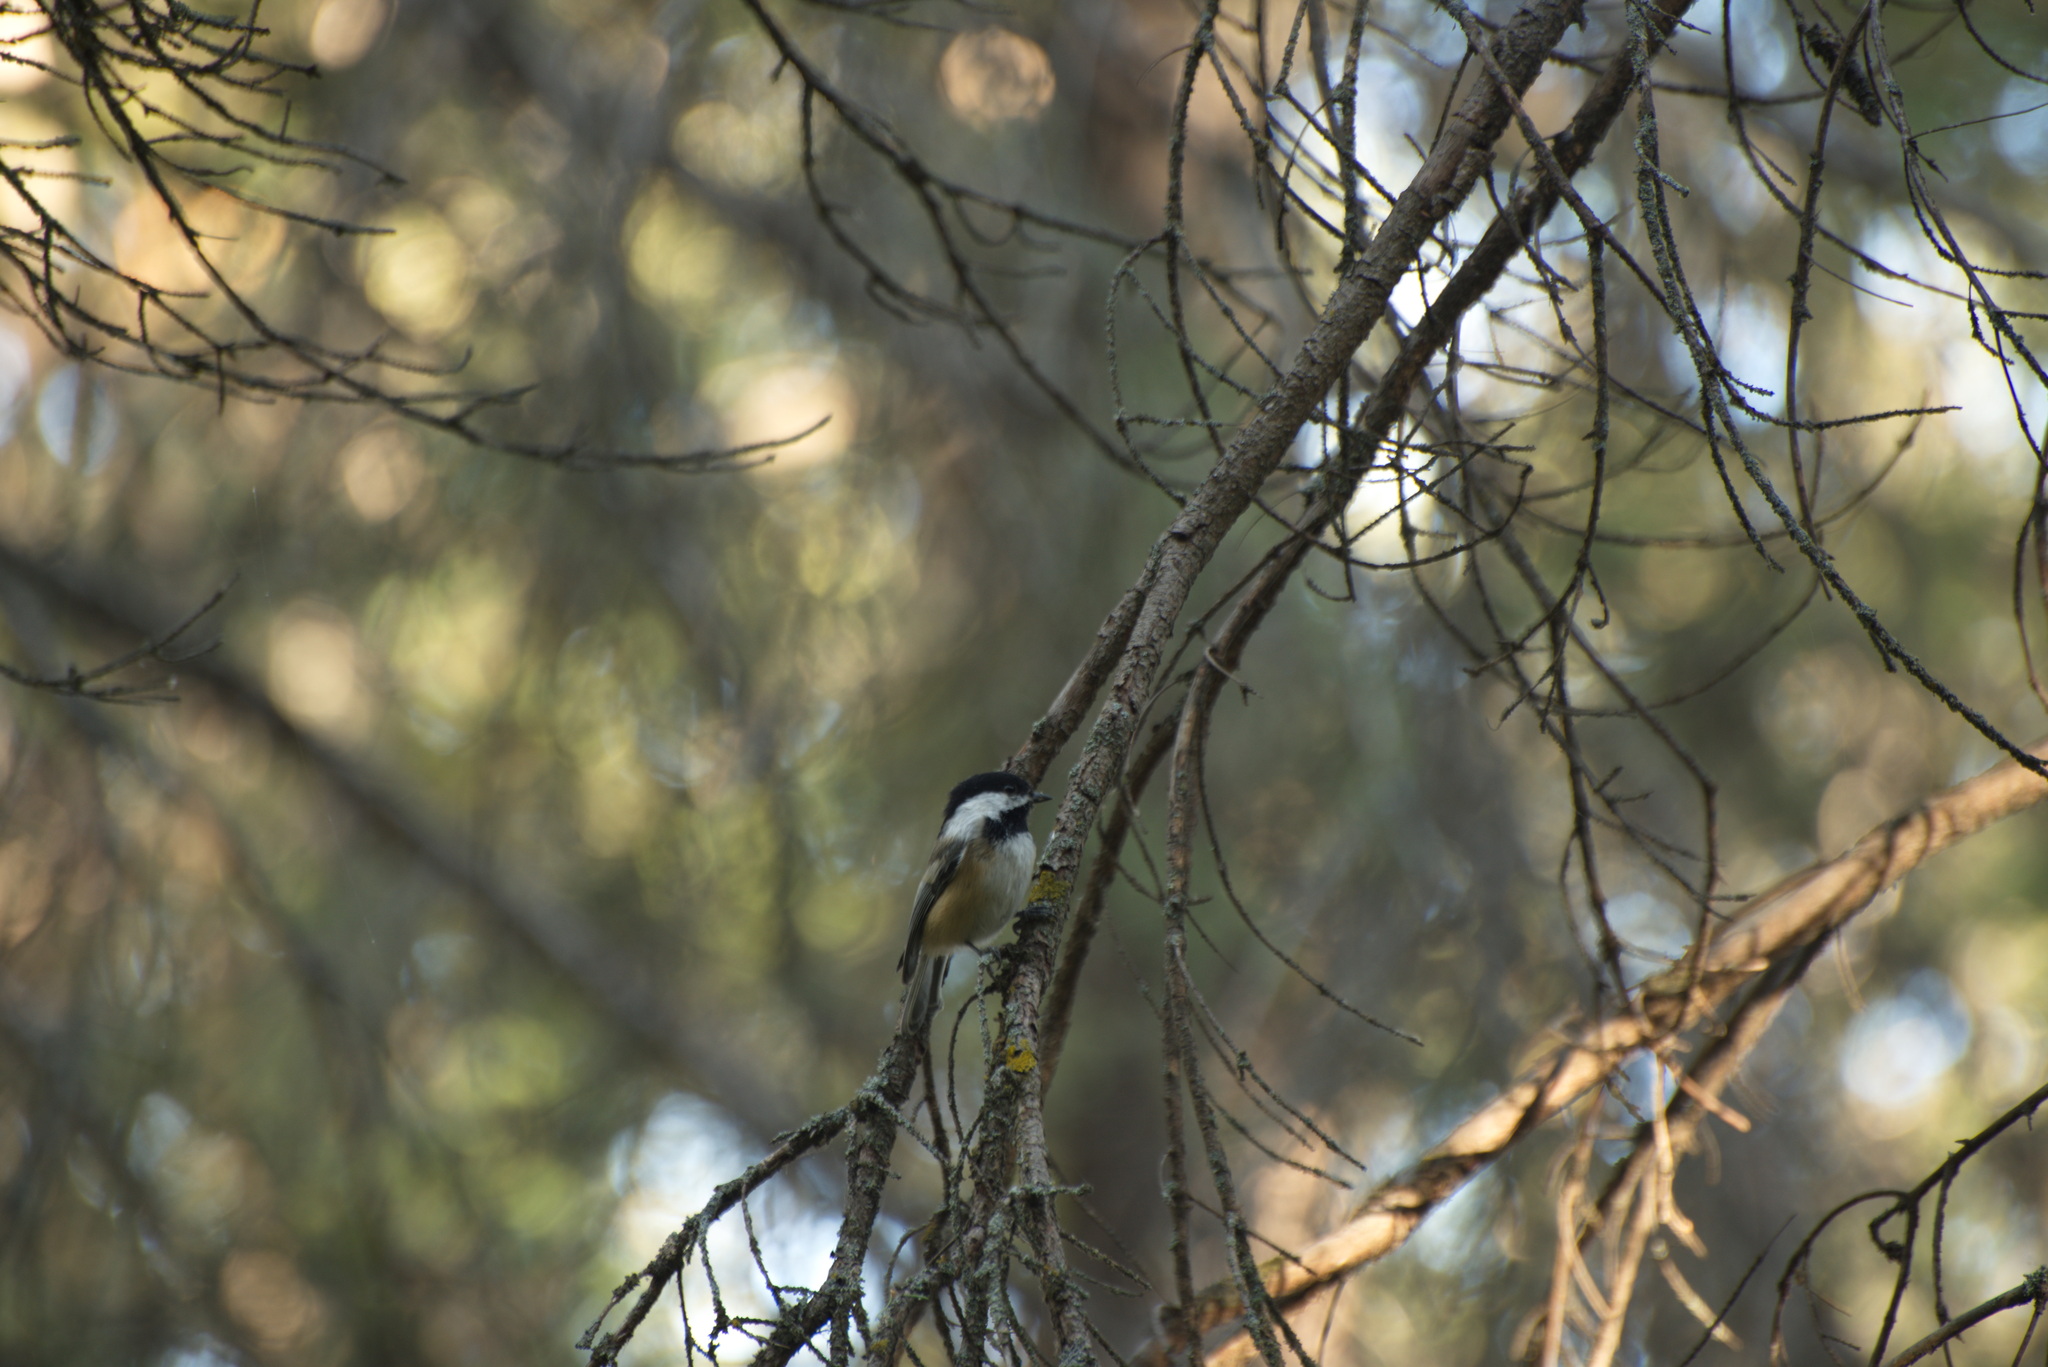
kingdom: Animalia
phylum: Chordata
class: Aves
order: Passeriformes
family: Paridae
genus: Poecile
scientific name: Poecile atricapillus
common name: Black-capped chickadee
